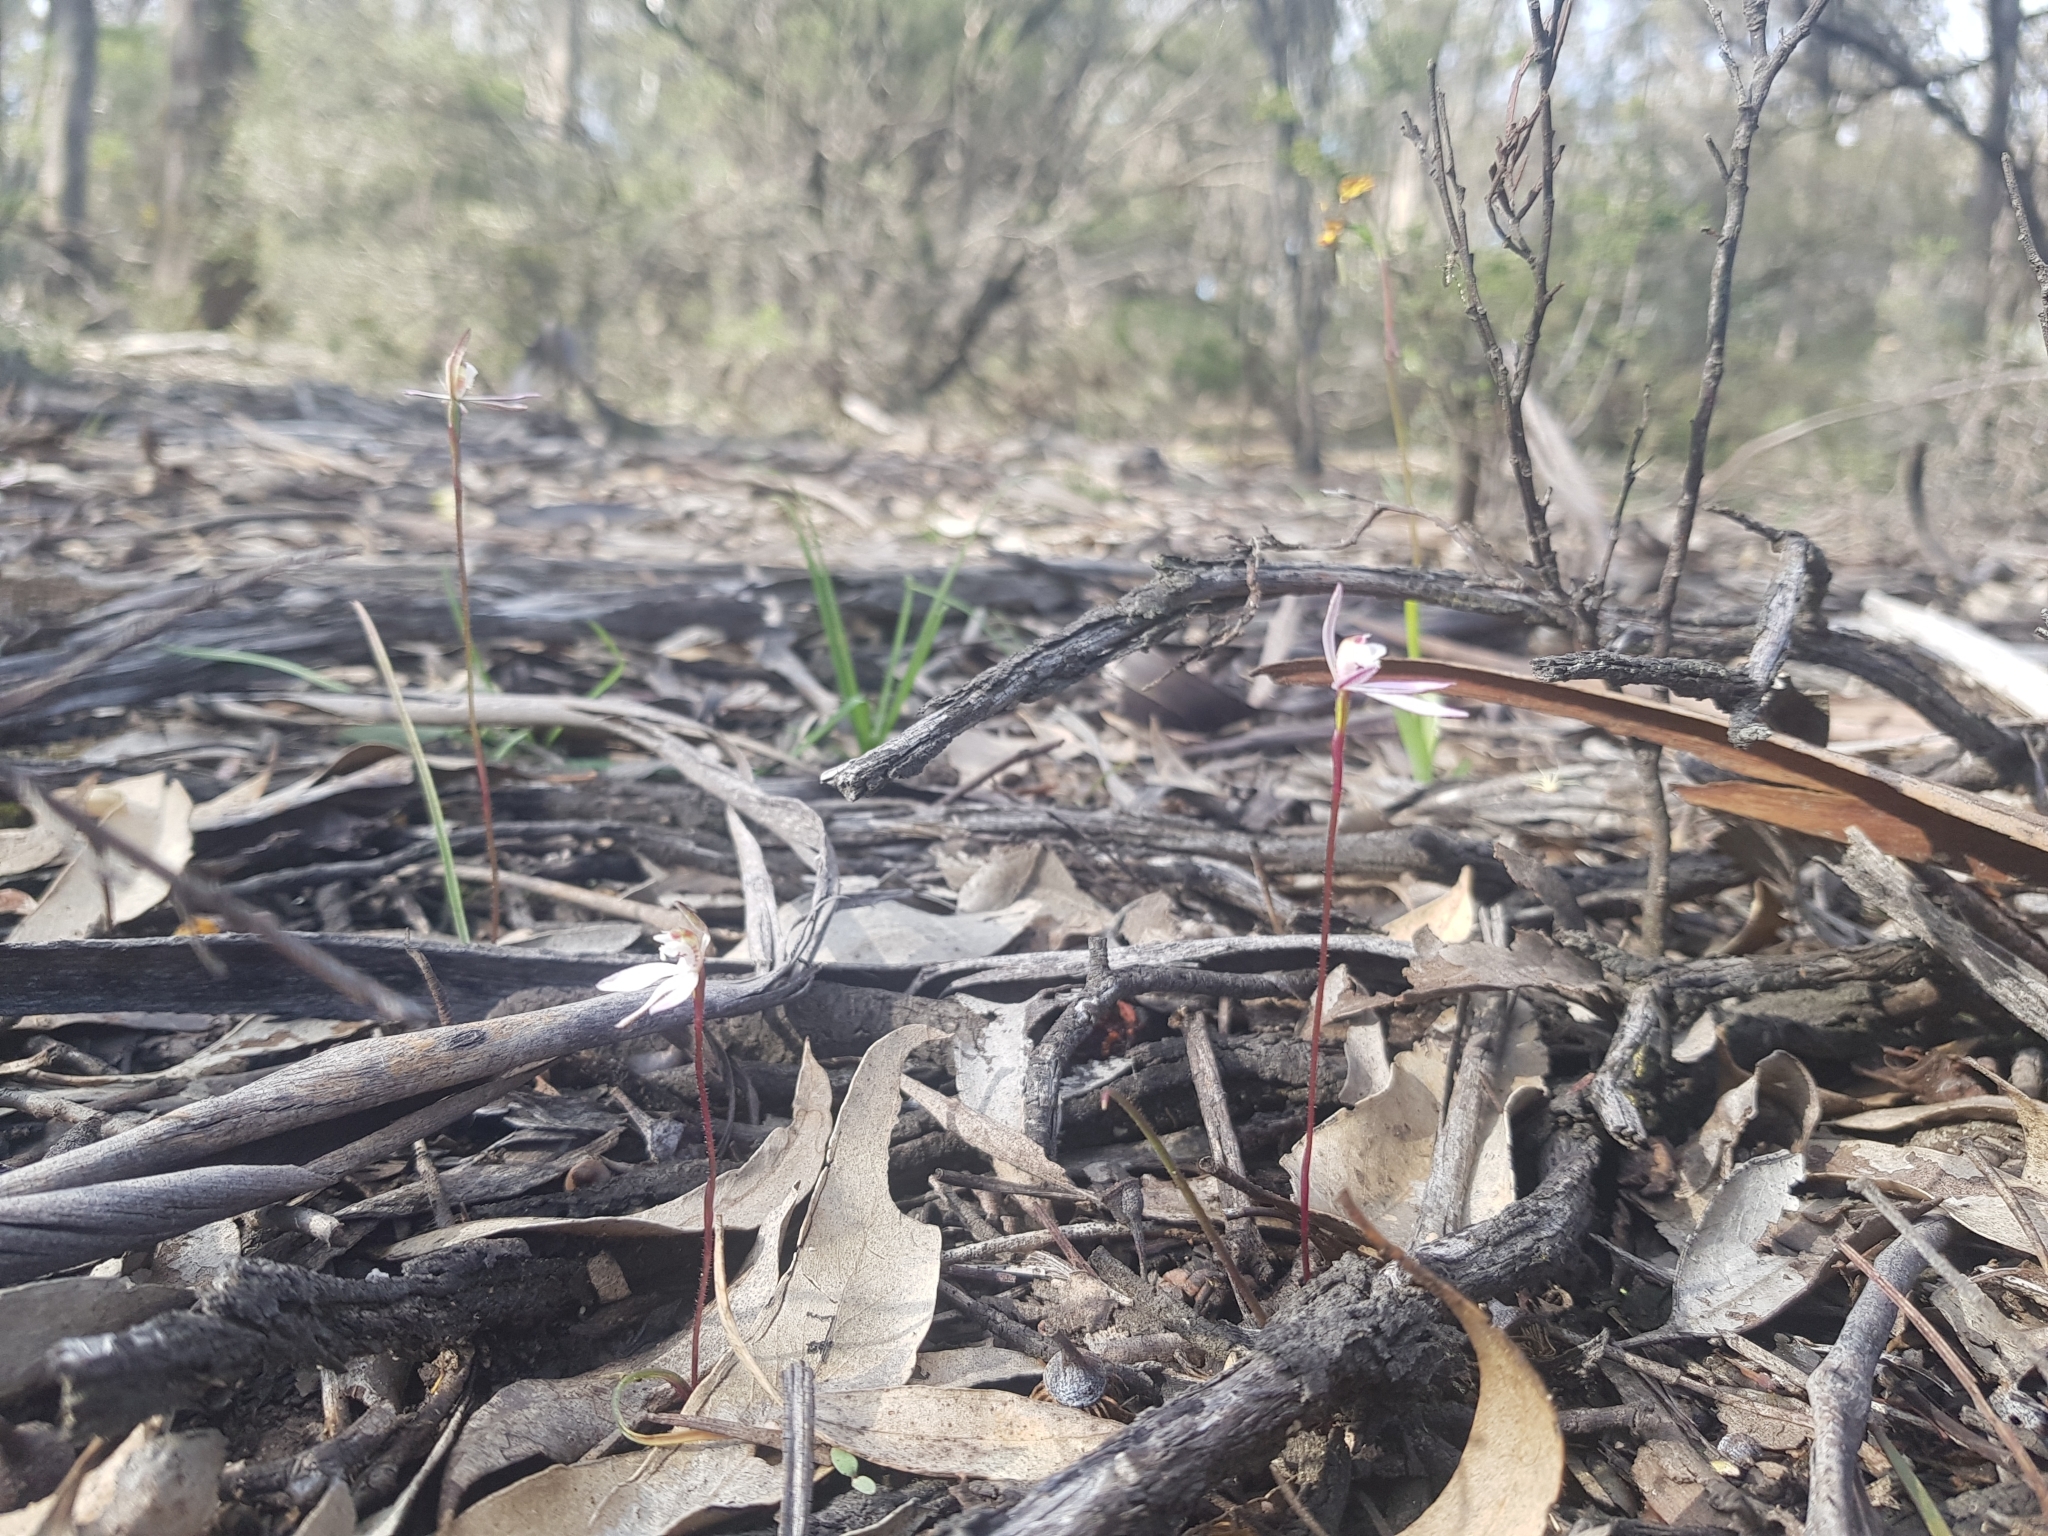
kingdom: Plantae
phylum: Tracheophyta
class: Liliopsida
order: Asparagales
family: Orchidaceae
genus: Caladenia
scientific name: Caladenia fuscata
